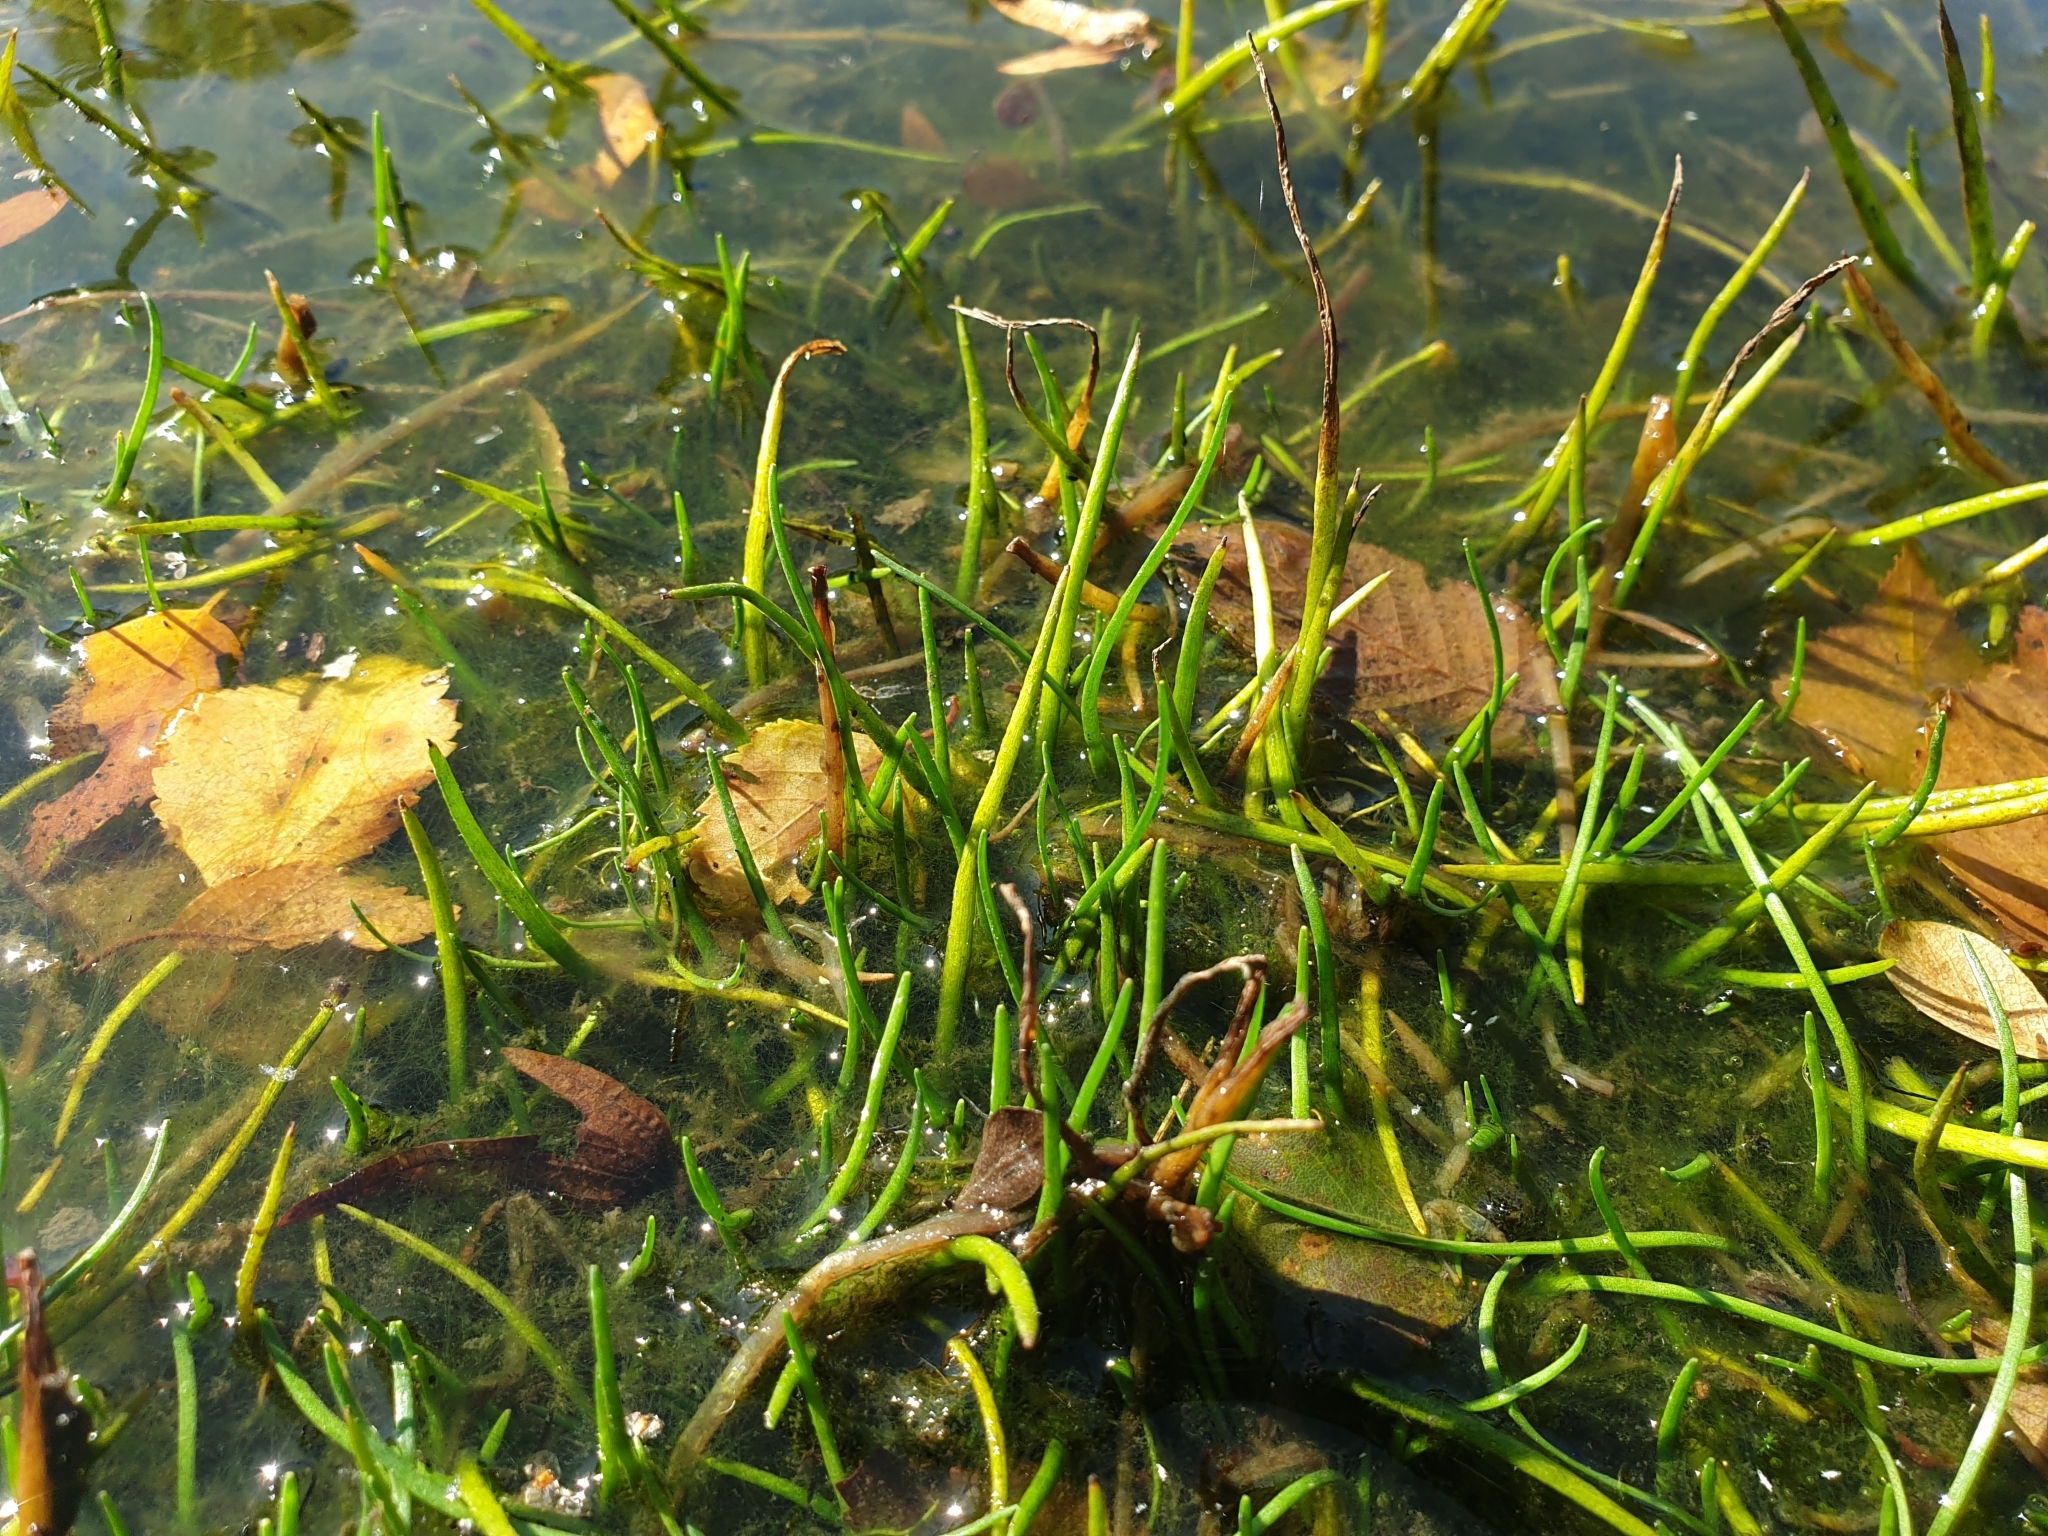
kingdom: Plantae
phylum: Tracheophyta
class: Magnoliopsida
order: Lamiales
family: Plantaginaceae
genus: Littorella
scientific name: Littorella uniflora
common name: Shoreweed
